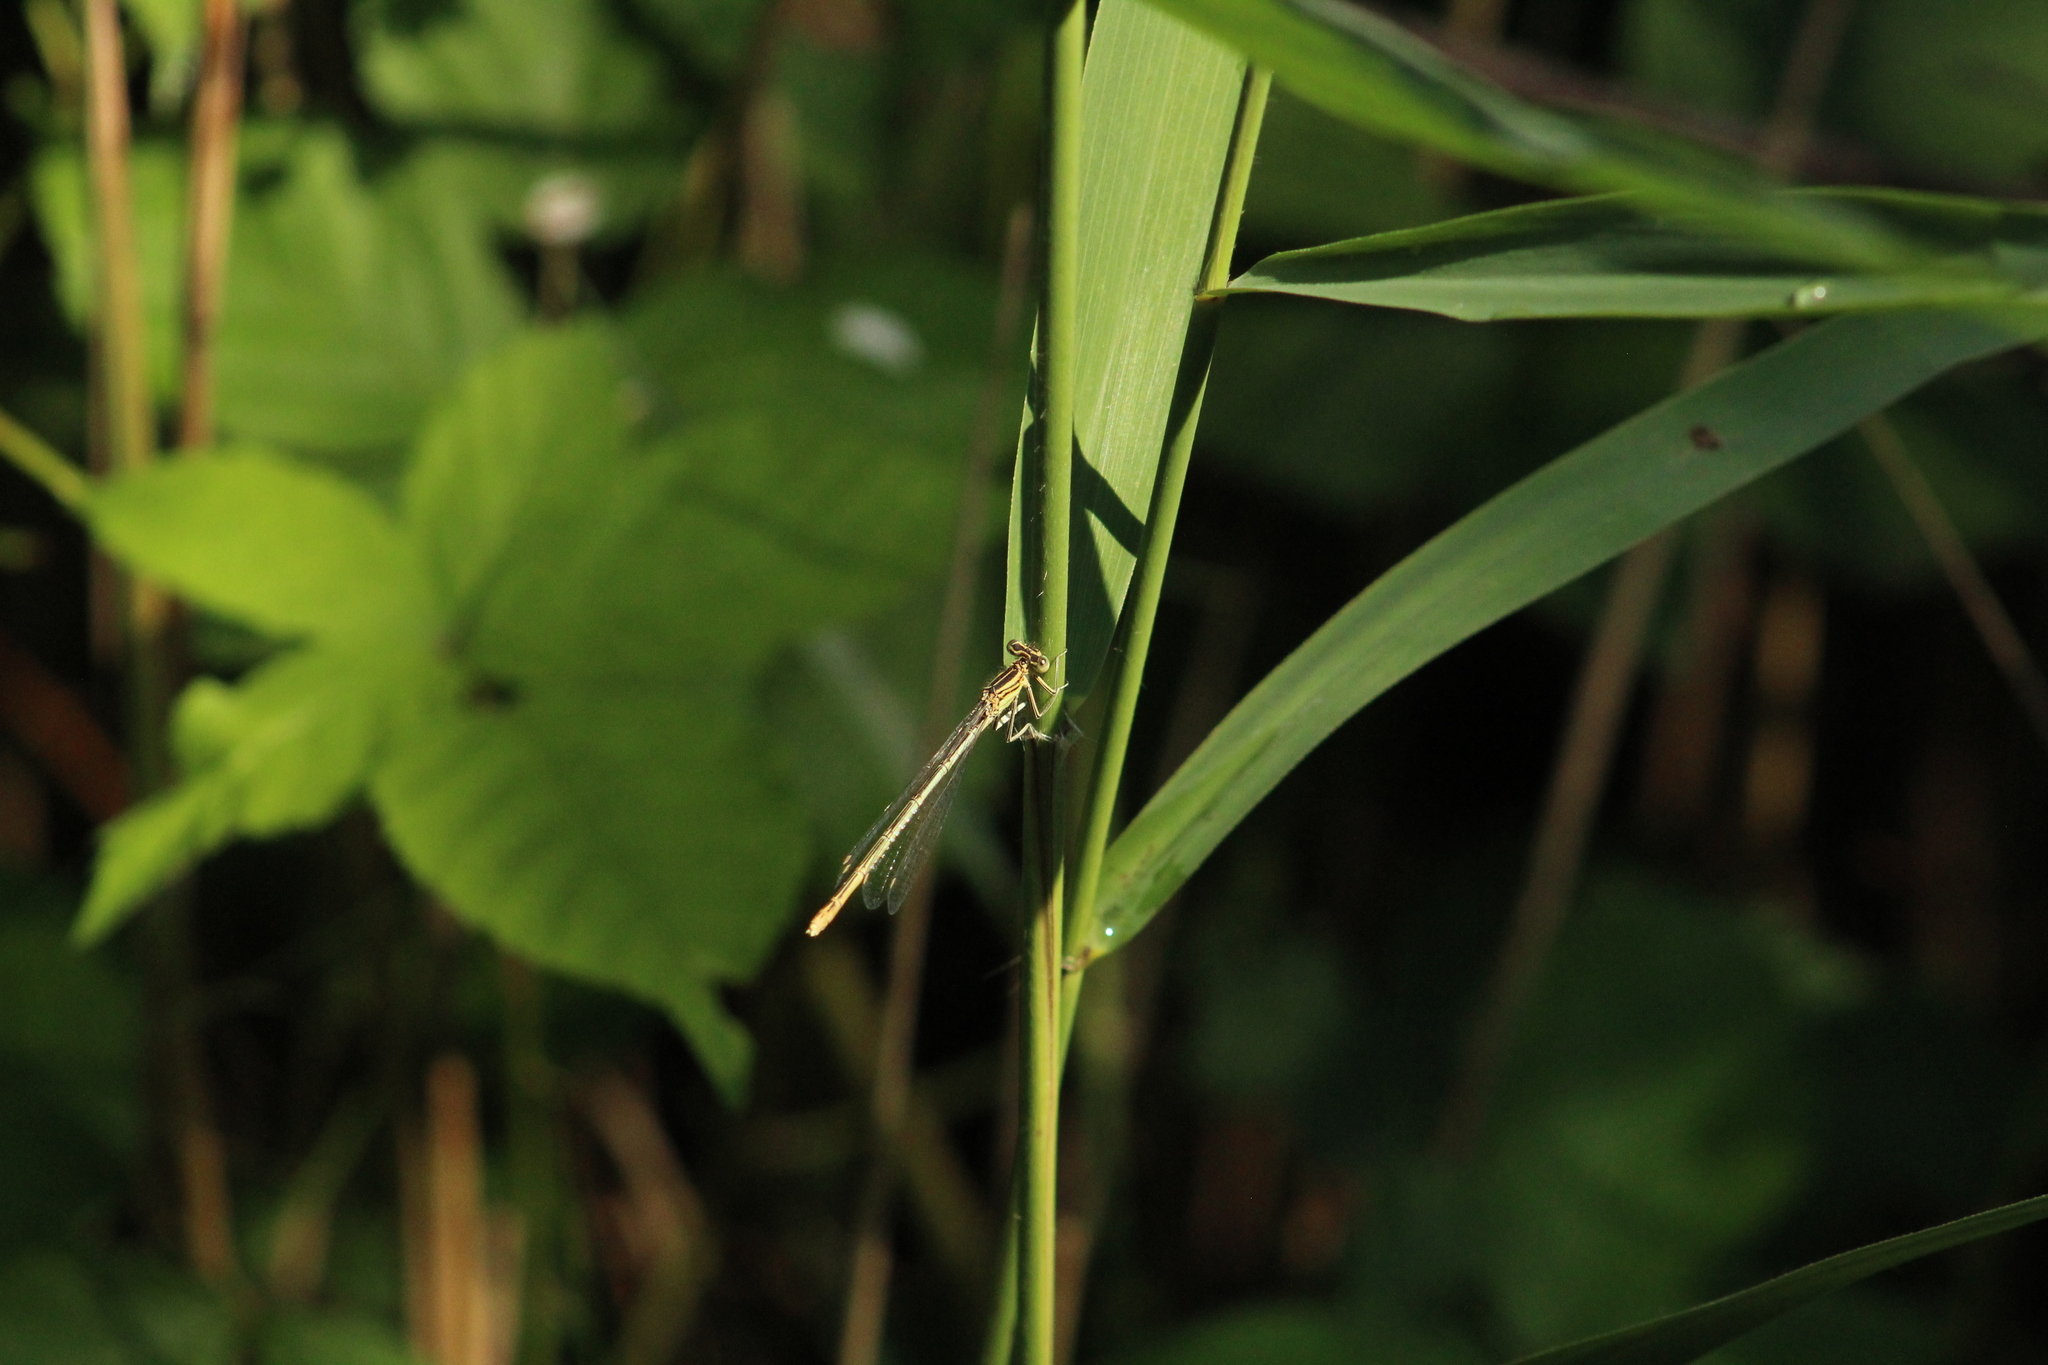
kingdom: Animalia
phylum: Arthropoda
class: Insecta
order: Odonata
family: Platycnemididae
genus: Platycnemis
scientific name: Platycnemis pennipes
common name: White-legged damselfly
